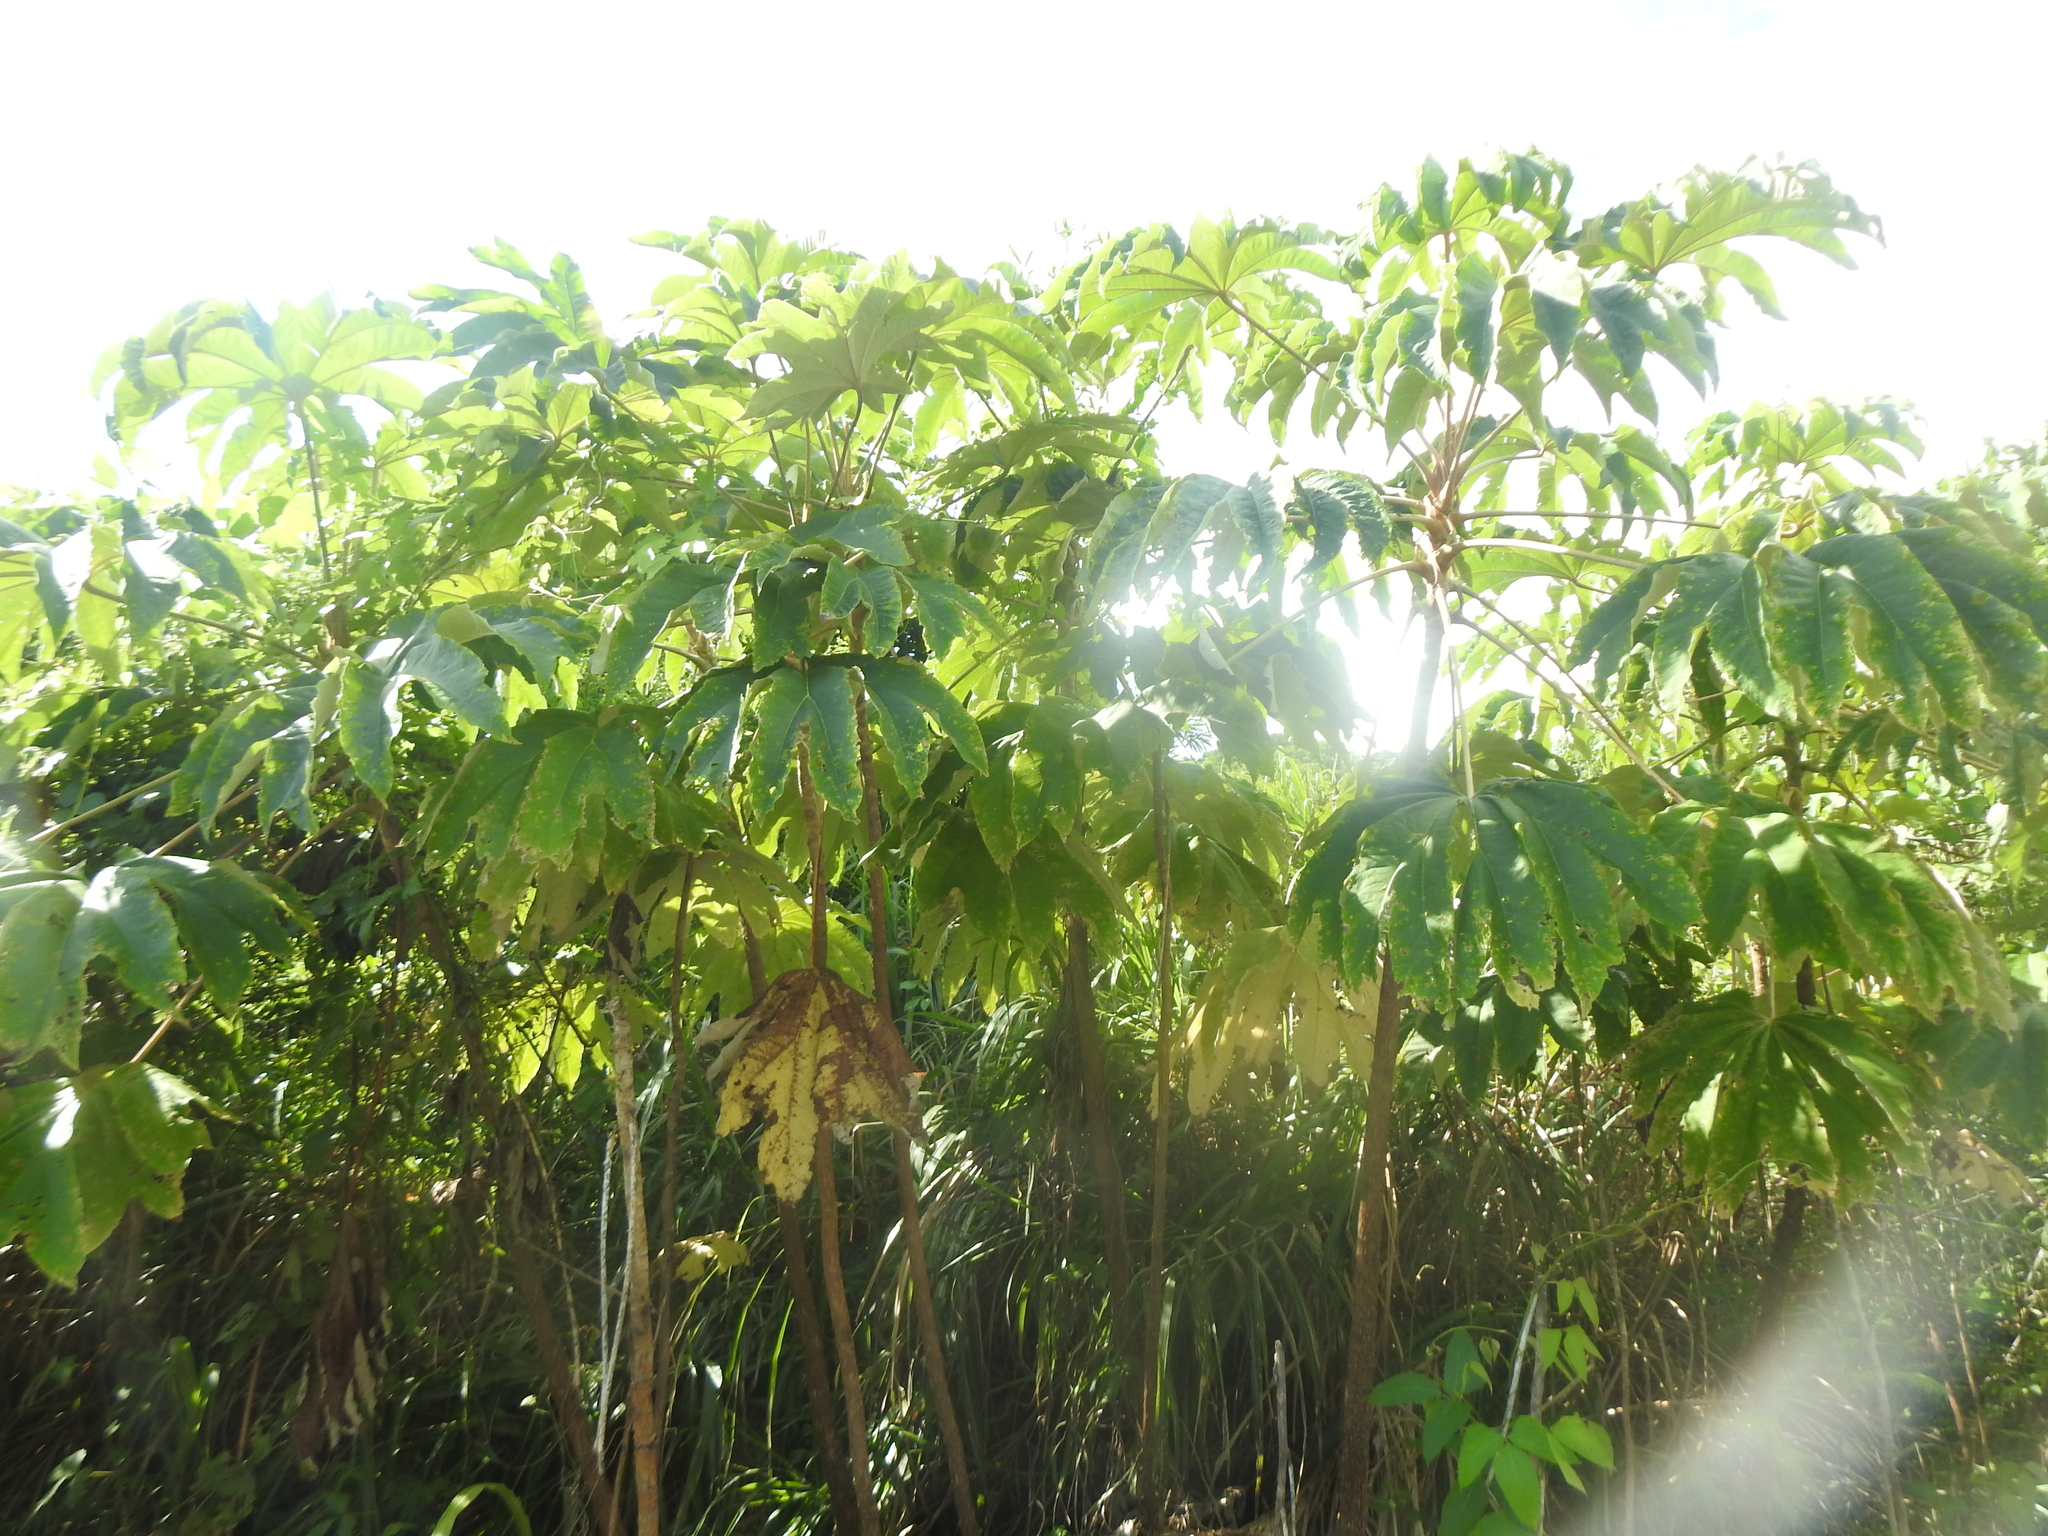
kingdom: Plantae
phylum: Tracheophyta
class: Magnoliopsida
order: Apiales
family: Araliaceae
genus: Tetrapanax
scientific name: Tetrapanax papyrifer
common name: Rice-paper plant
